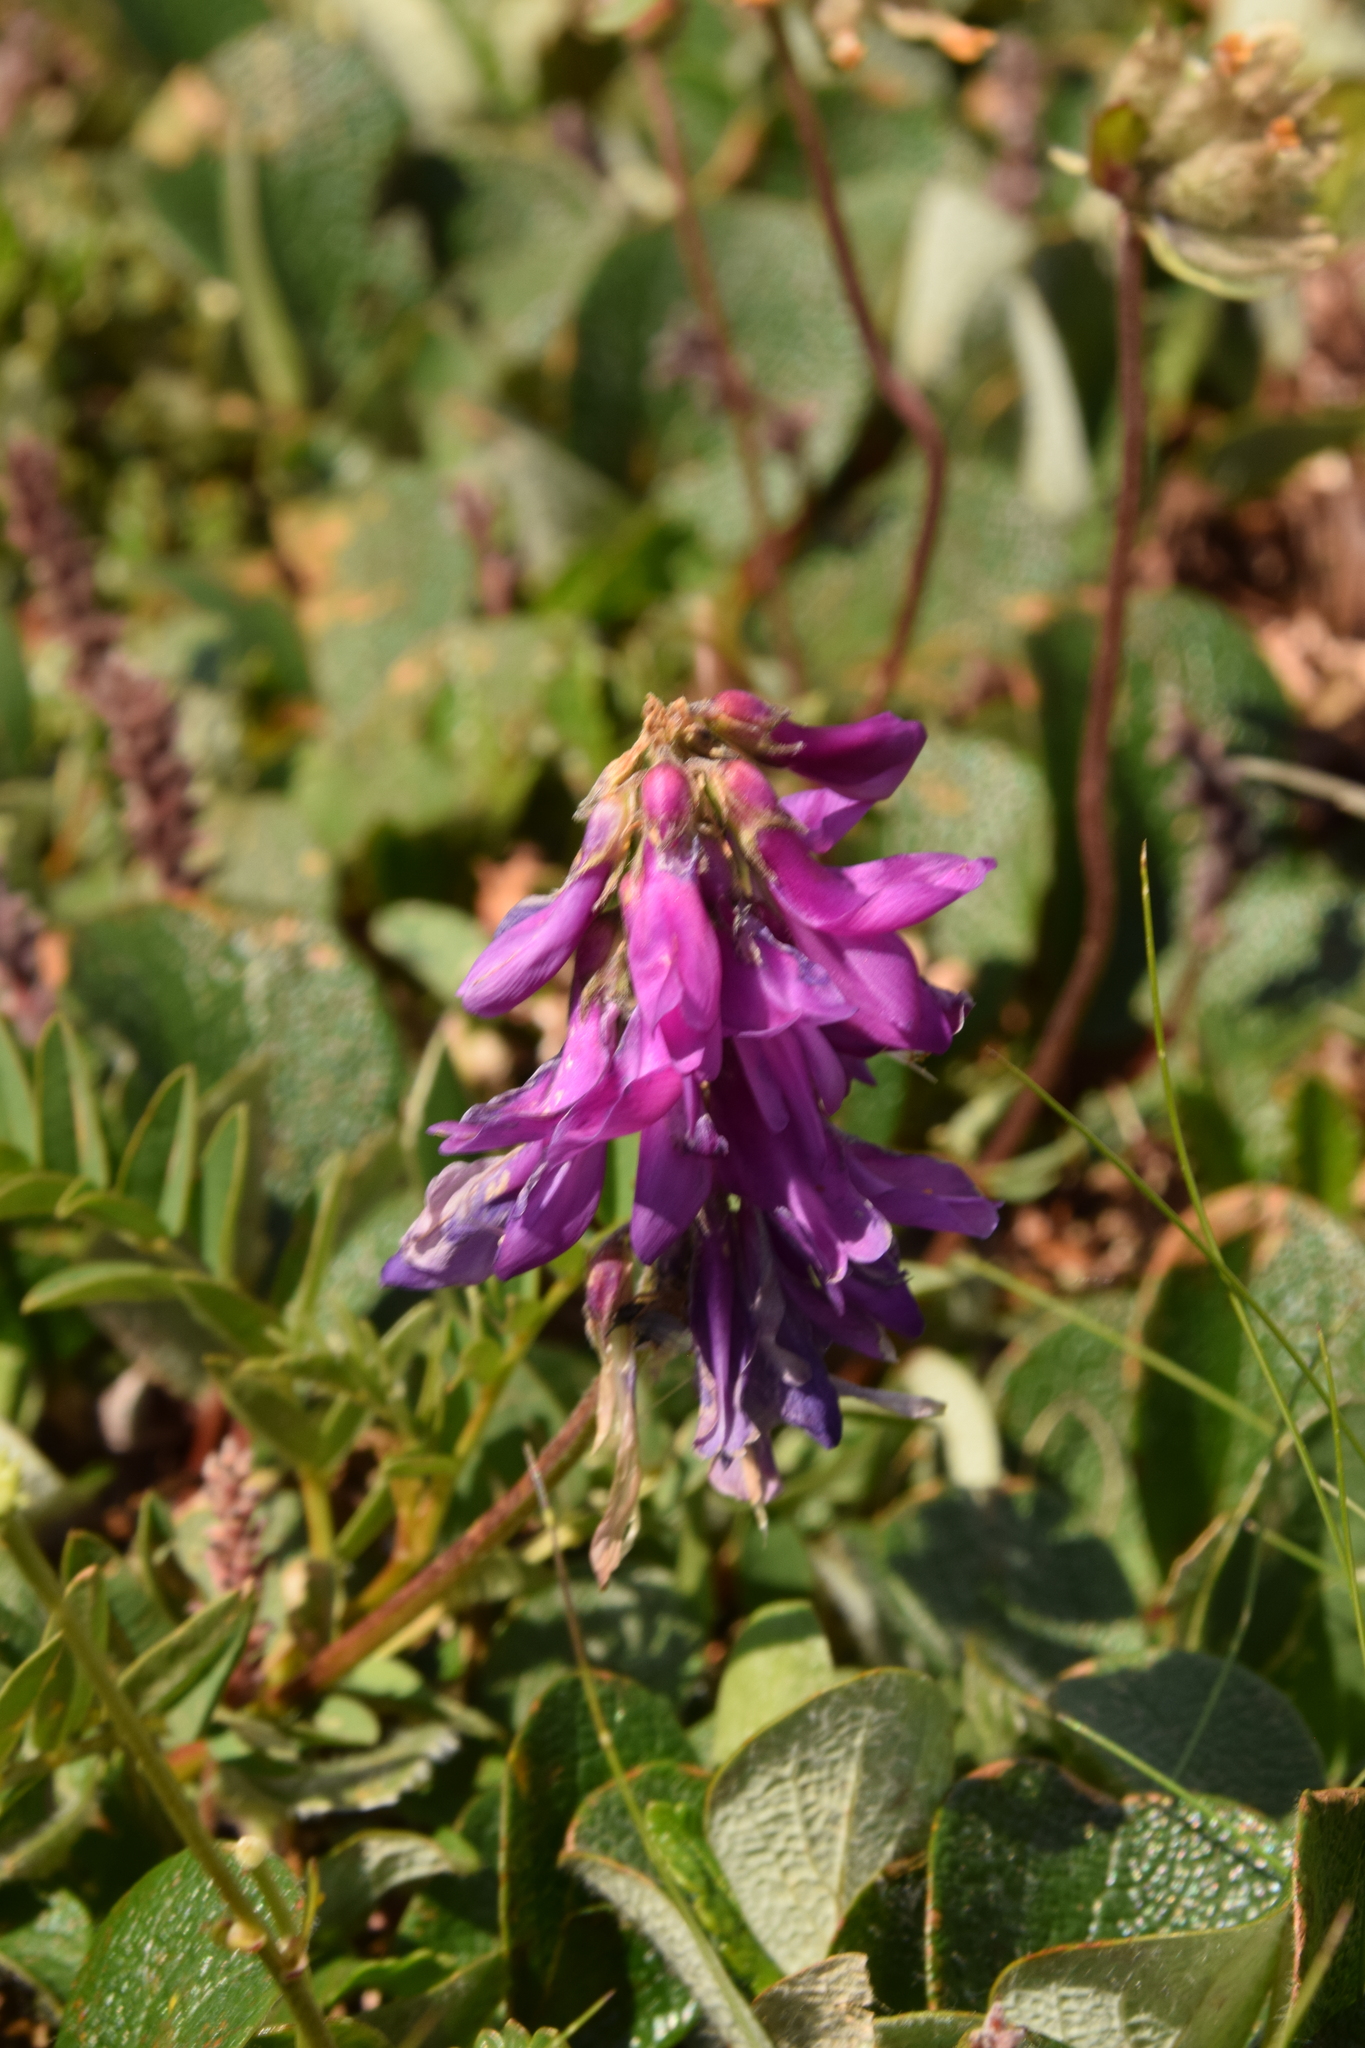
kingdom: Plantae
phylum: Tracheophyta
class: Magnoliopsida
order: Fabales
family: Fabaceae
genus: Hedysarum
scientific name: Hedysarum hedysaroides
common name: Alpine french-honeysuckle
